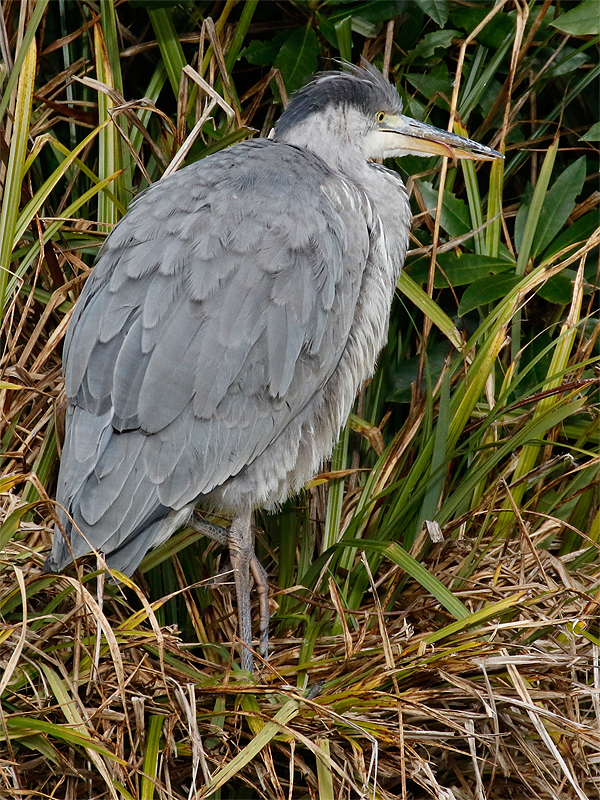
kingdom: Animalia
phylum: Chordata
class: Aves
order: Pelecaniformes
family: Ardeidae
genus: Ardea
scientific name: Ardea cinerea
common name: Grey heron
